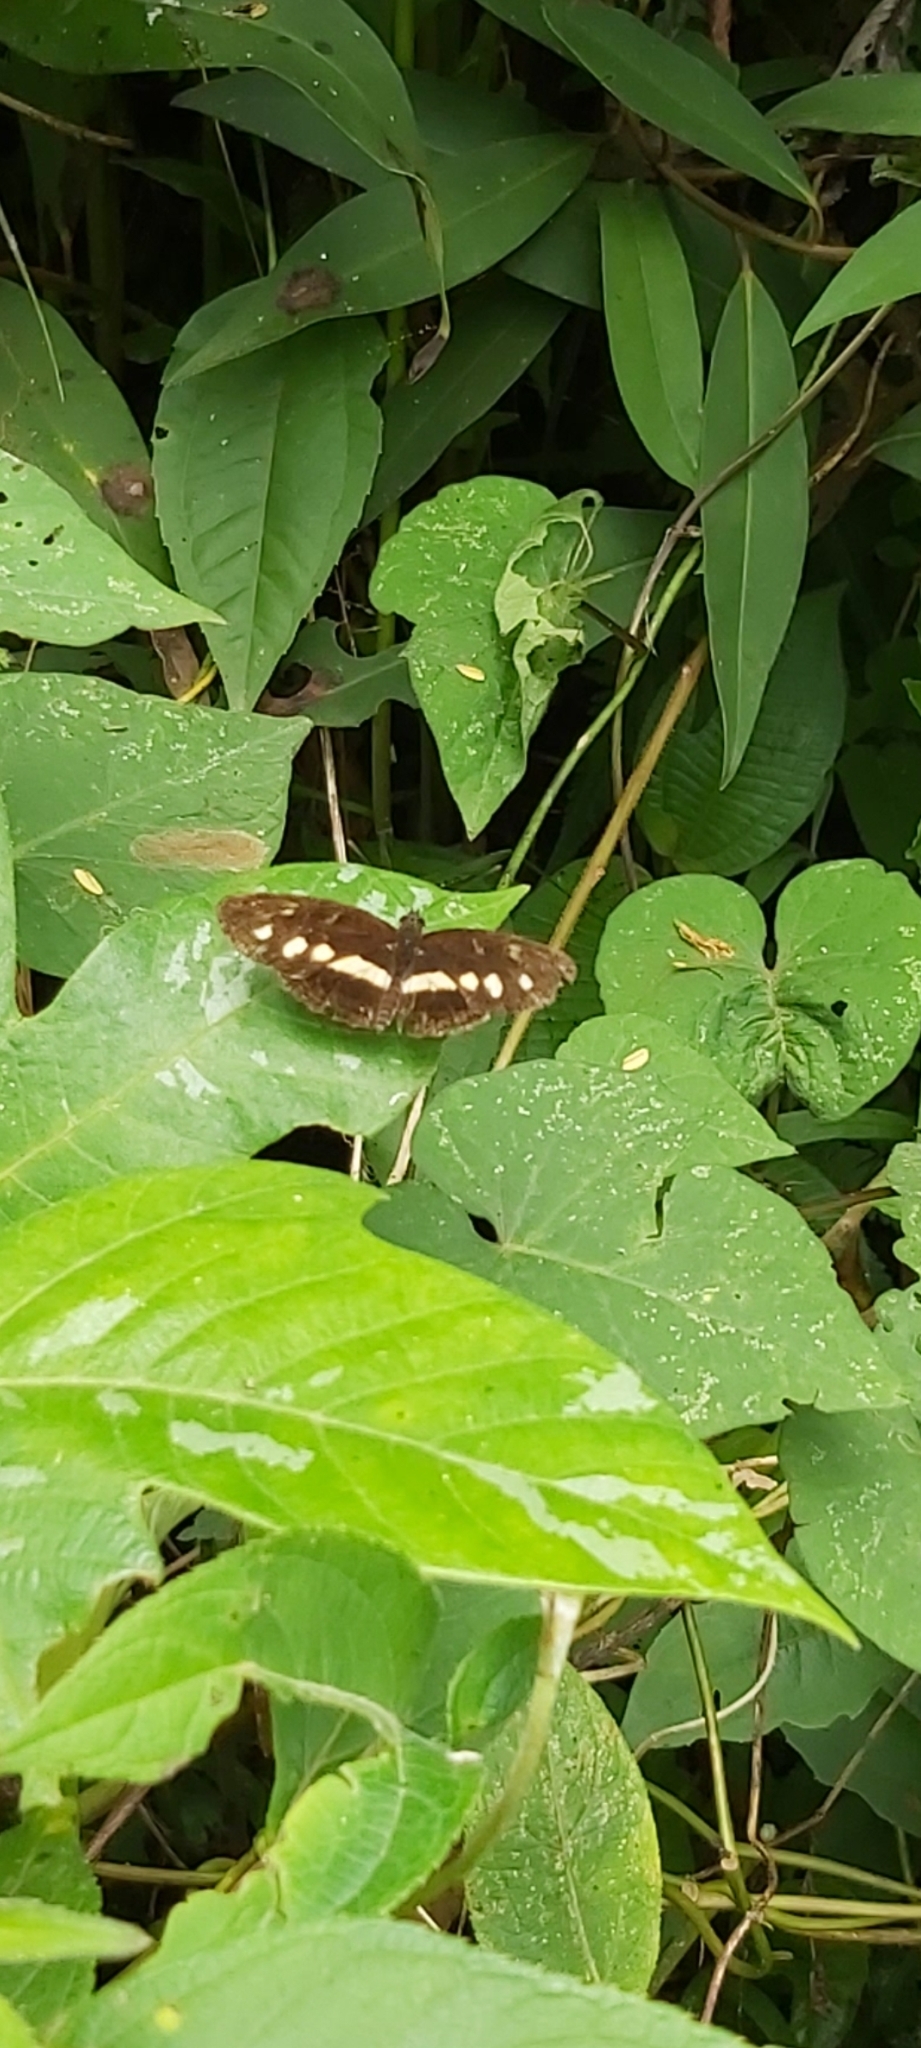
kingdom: Animalia
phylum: Arthropoda
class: Insecta
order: Lepidoptera
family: Nymphalidae
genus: Eresia
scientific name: Eresia polina
